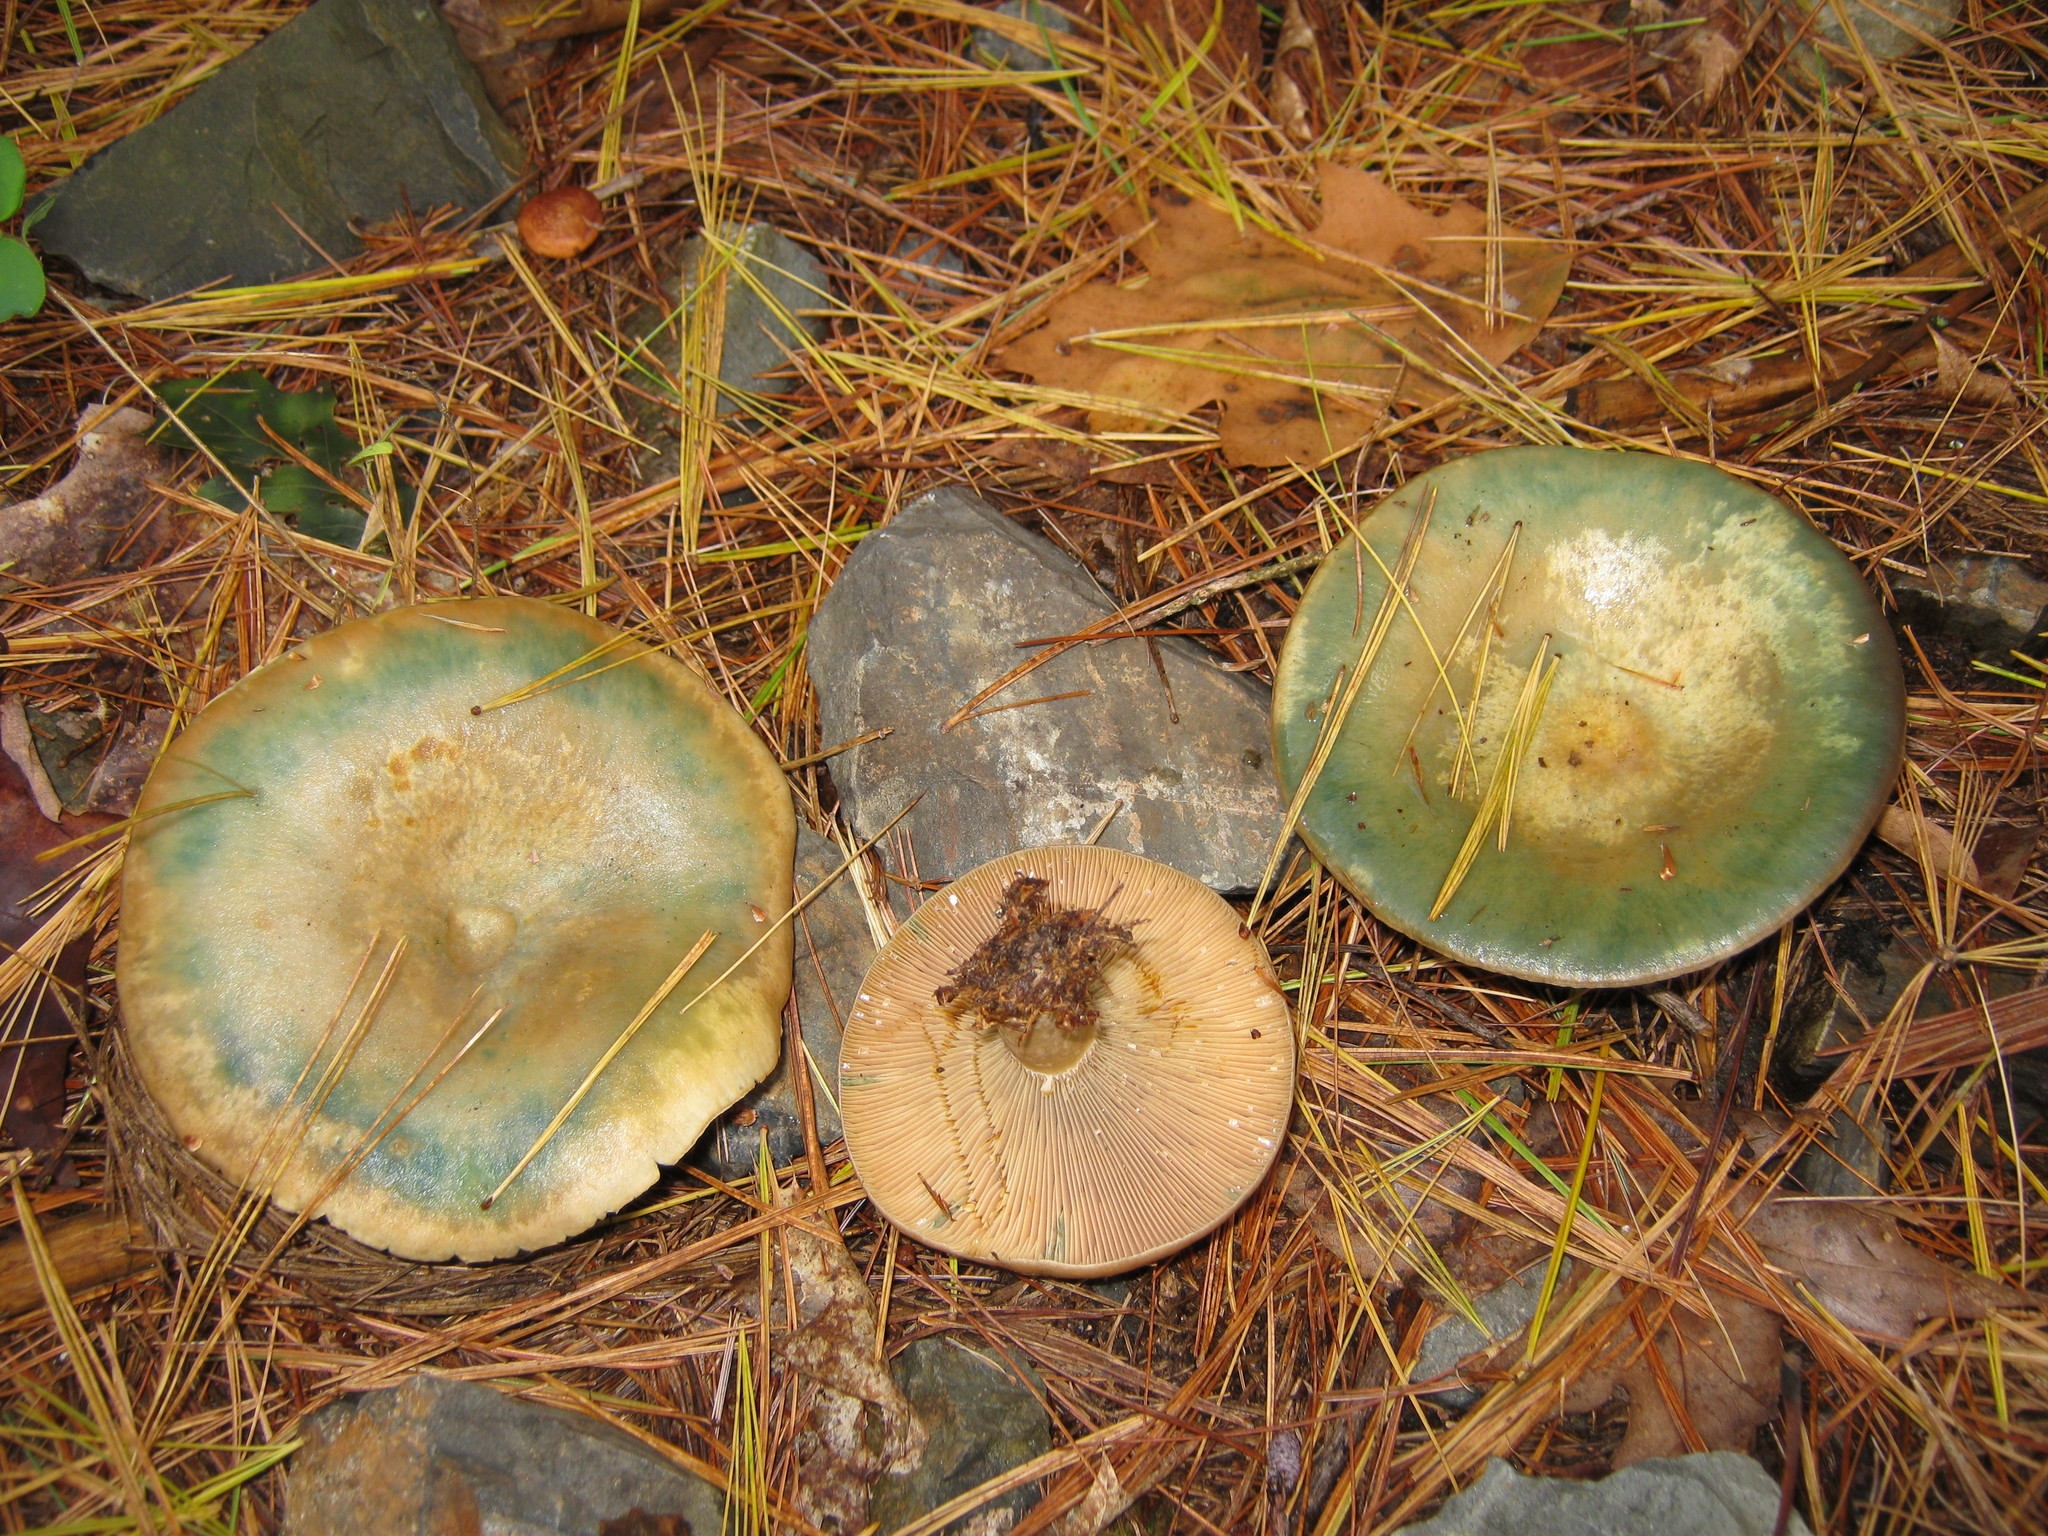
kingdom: Fungi
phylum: Basidiomycota
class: Agaricomycetes
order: Russulales
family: Russulaceae
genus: Lactarius
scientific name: Lactarius chelidonium
